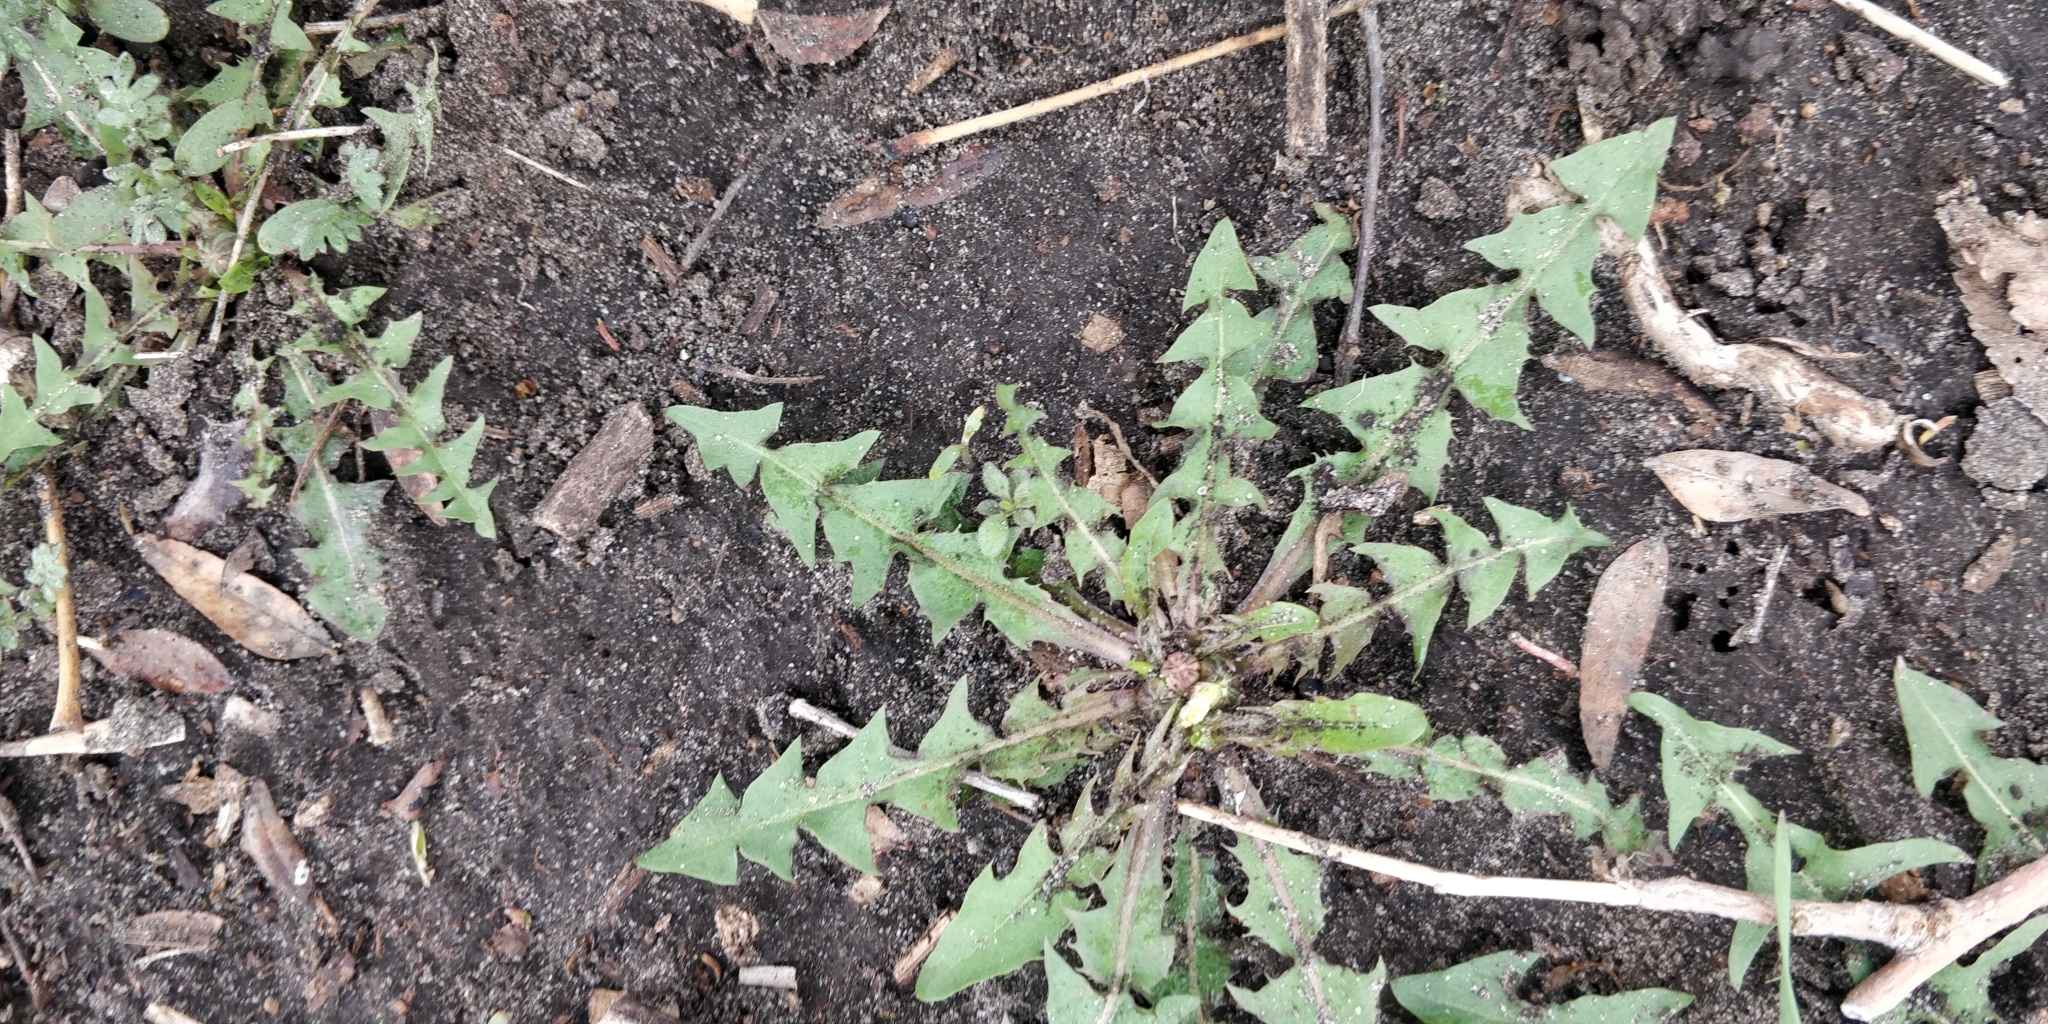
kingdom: Plantae
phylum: Tracheophyta
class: Magnoliopsida
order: Asterales
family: Asteraceae
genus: Taraxacum
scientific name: Taraxacum
